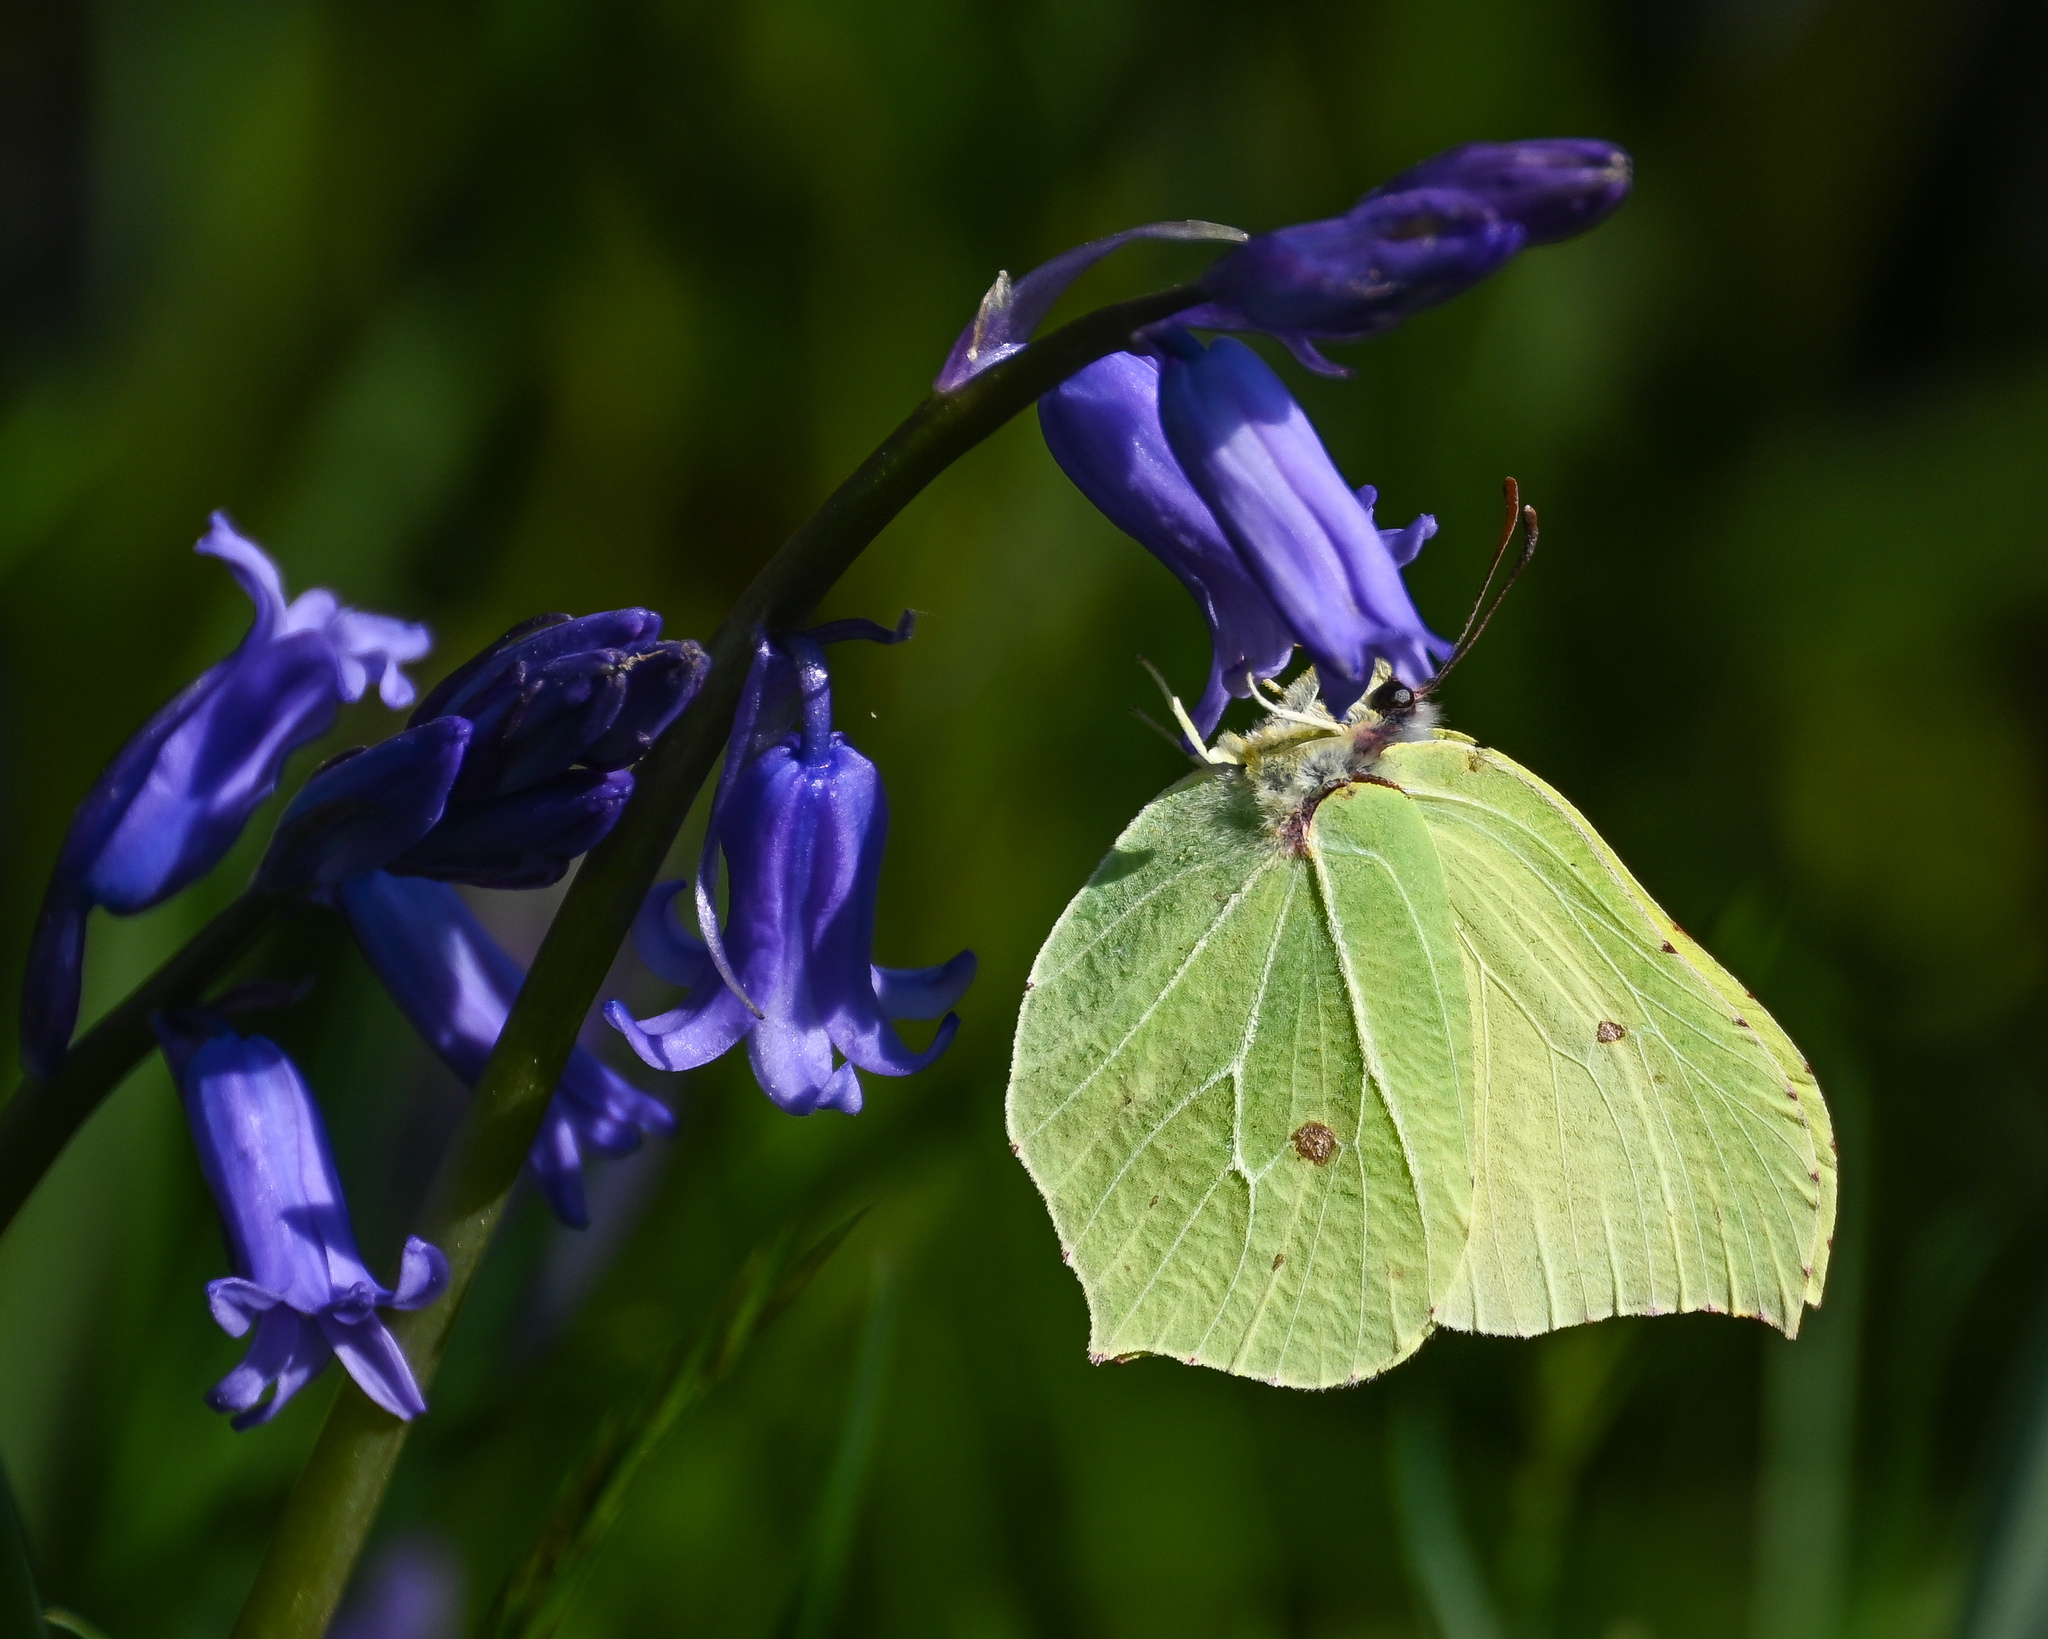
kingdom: Animalia
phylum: Arthropoda
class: Insecta
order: Lepidoptera
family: Pieridae
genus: Gonepteryx
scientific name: Gonepteryx rhamni
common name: Brimstone
